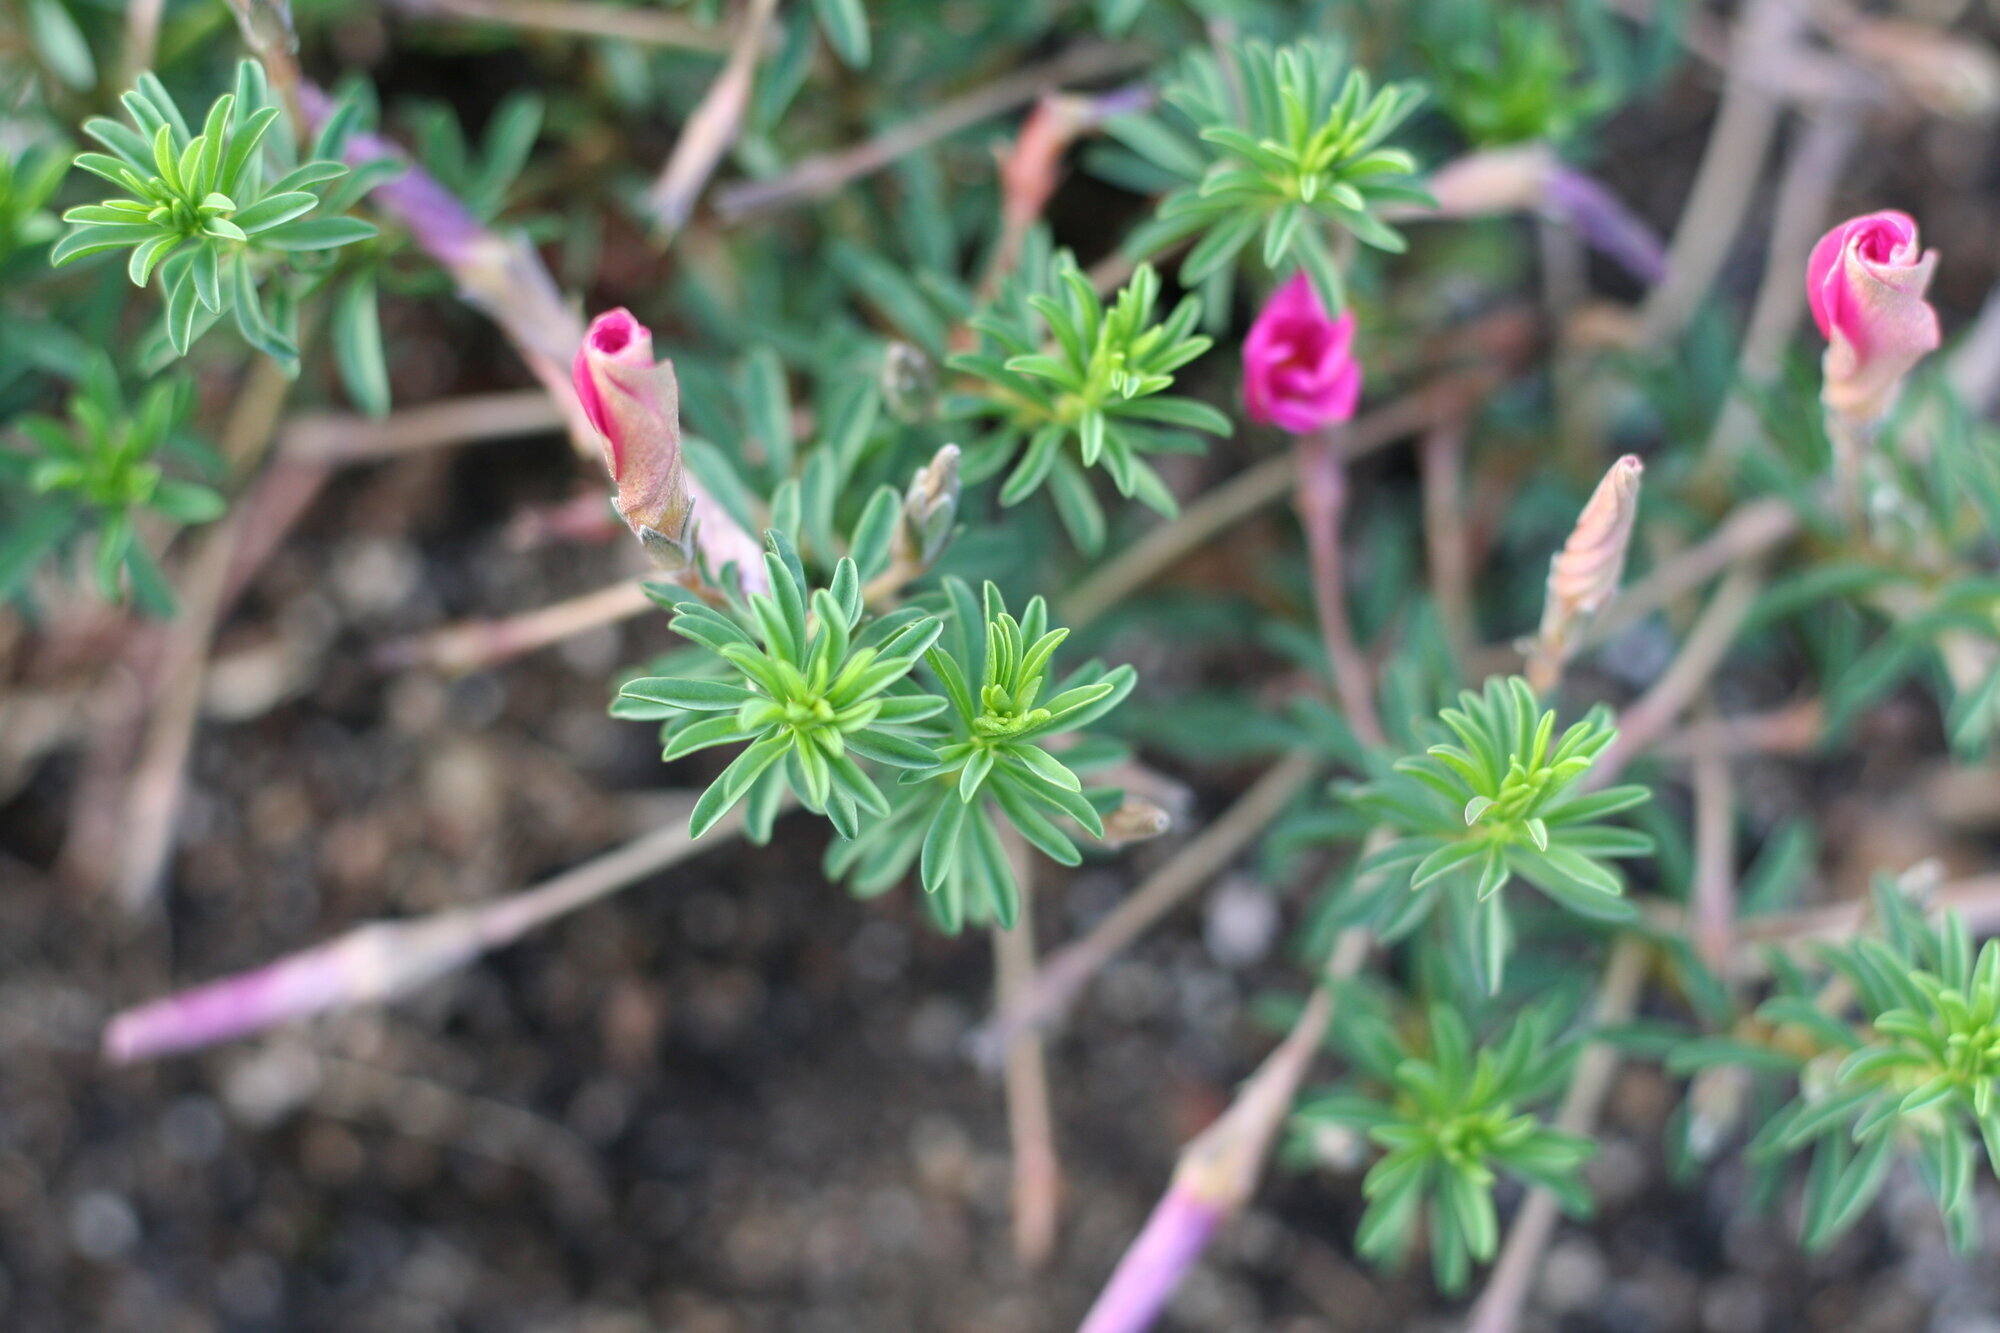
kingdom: Plantae
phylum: Tracheophyta
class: Magnoliopsida
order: Oxalidales
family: Oxalidaceae
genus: Oxalis
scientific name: Oxalis hirta
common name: Tropical woodsorrel
